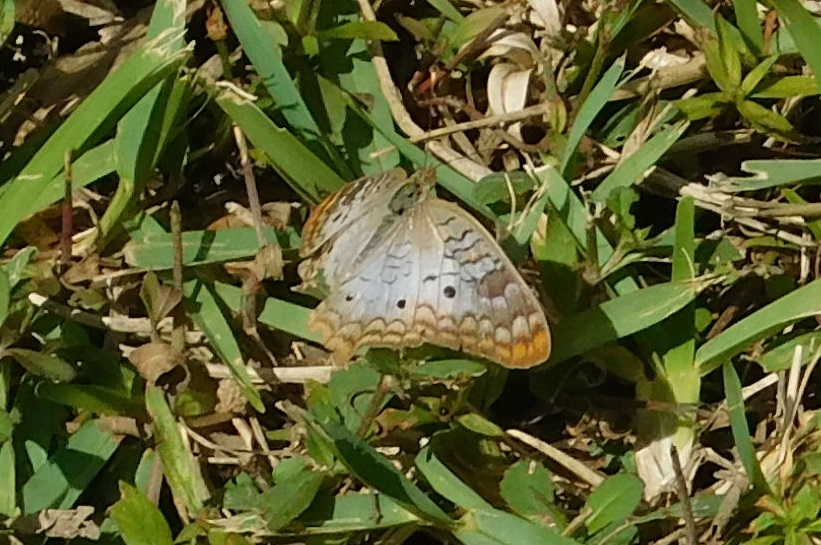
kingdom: Animalia
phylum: Arthropoda
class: Insecta
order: Lepidoptera
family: Nymphalidae
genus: Anartia
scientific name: Anartia jatrophae
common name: White peacock
